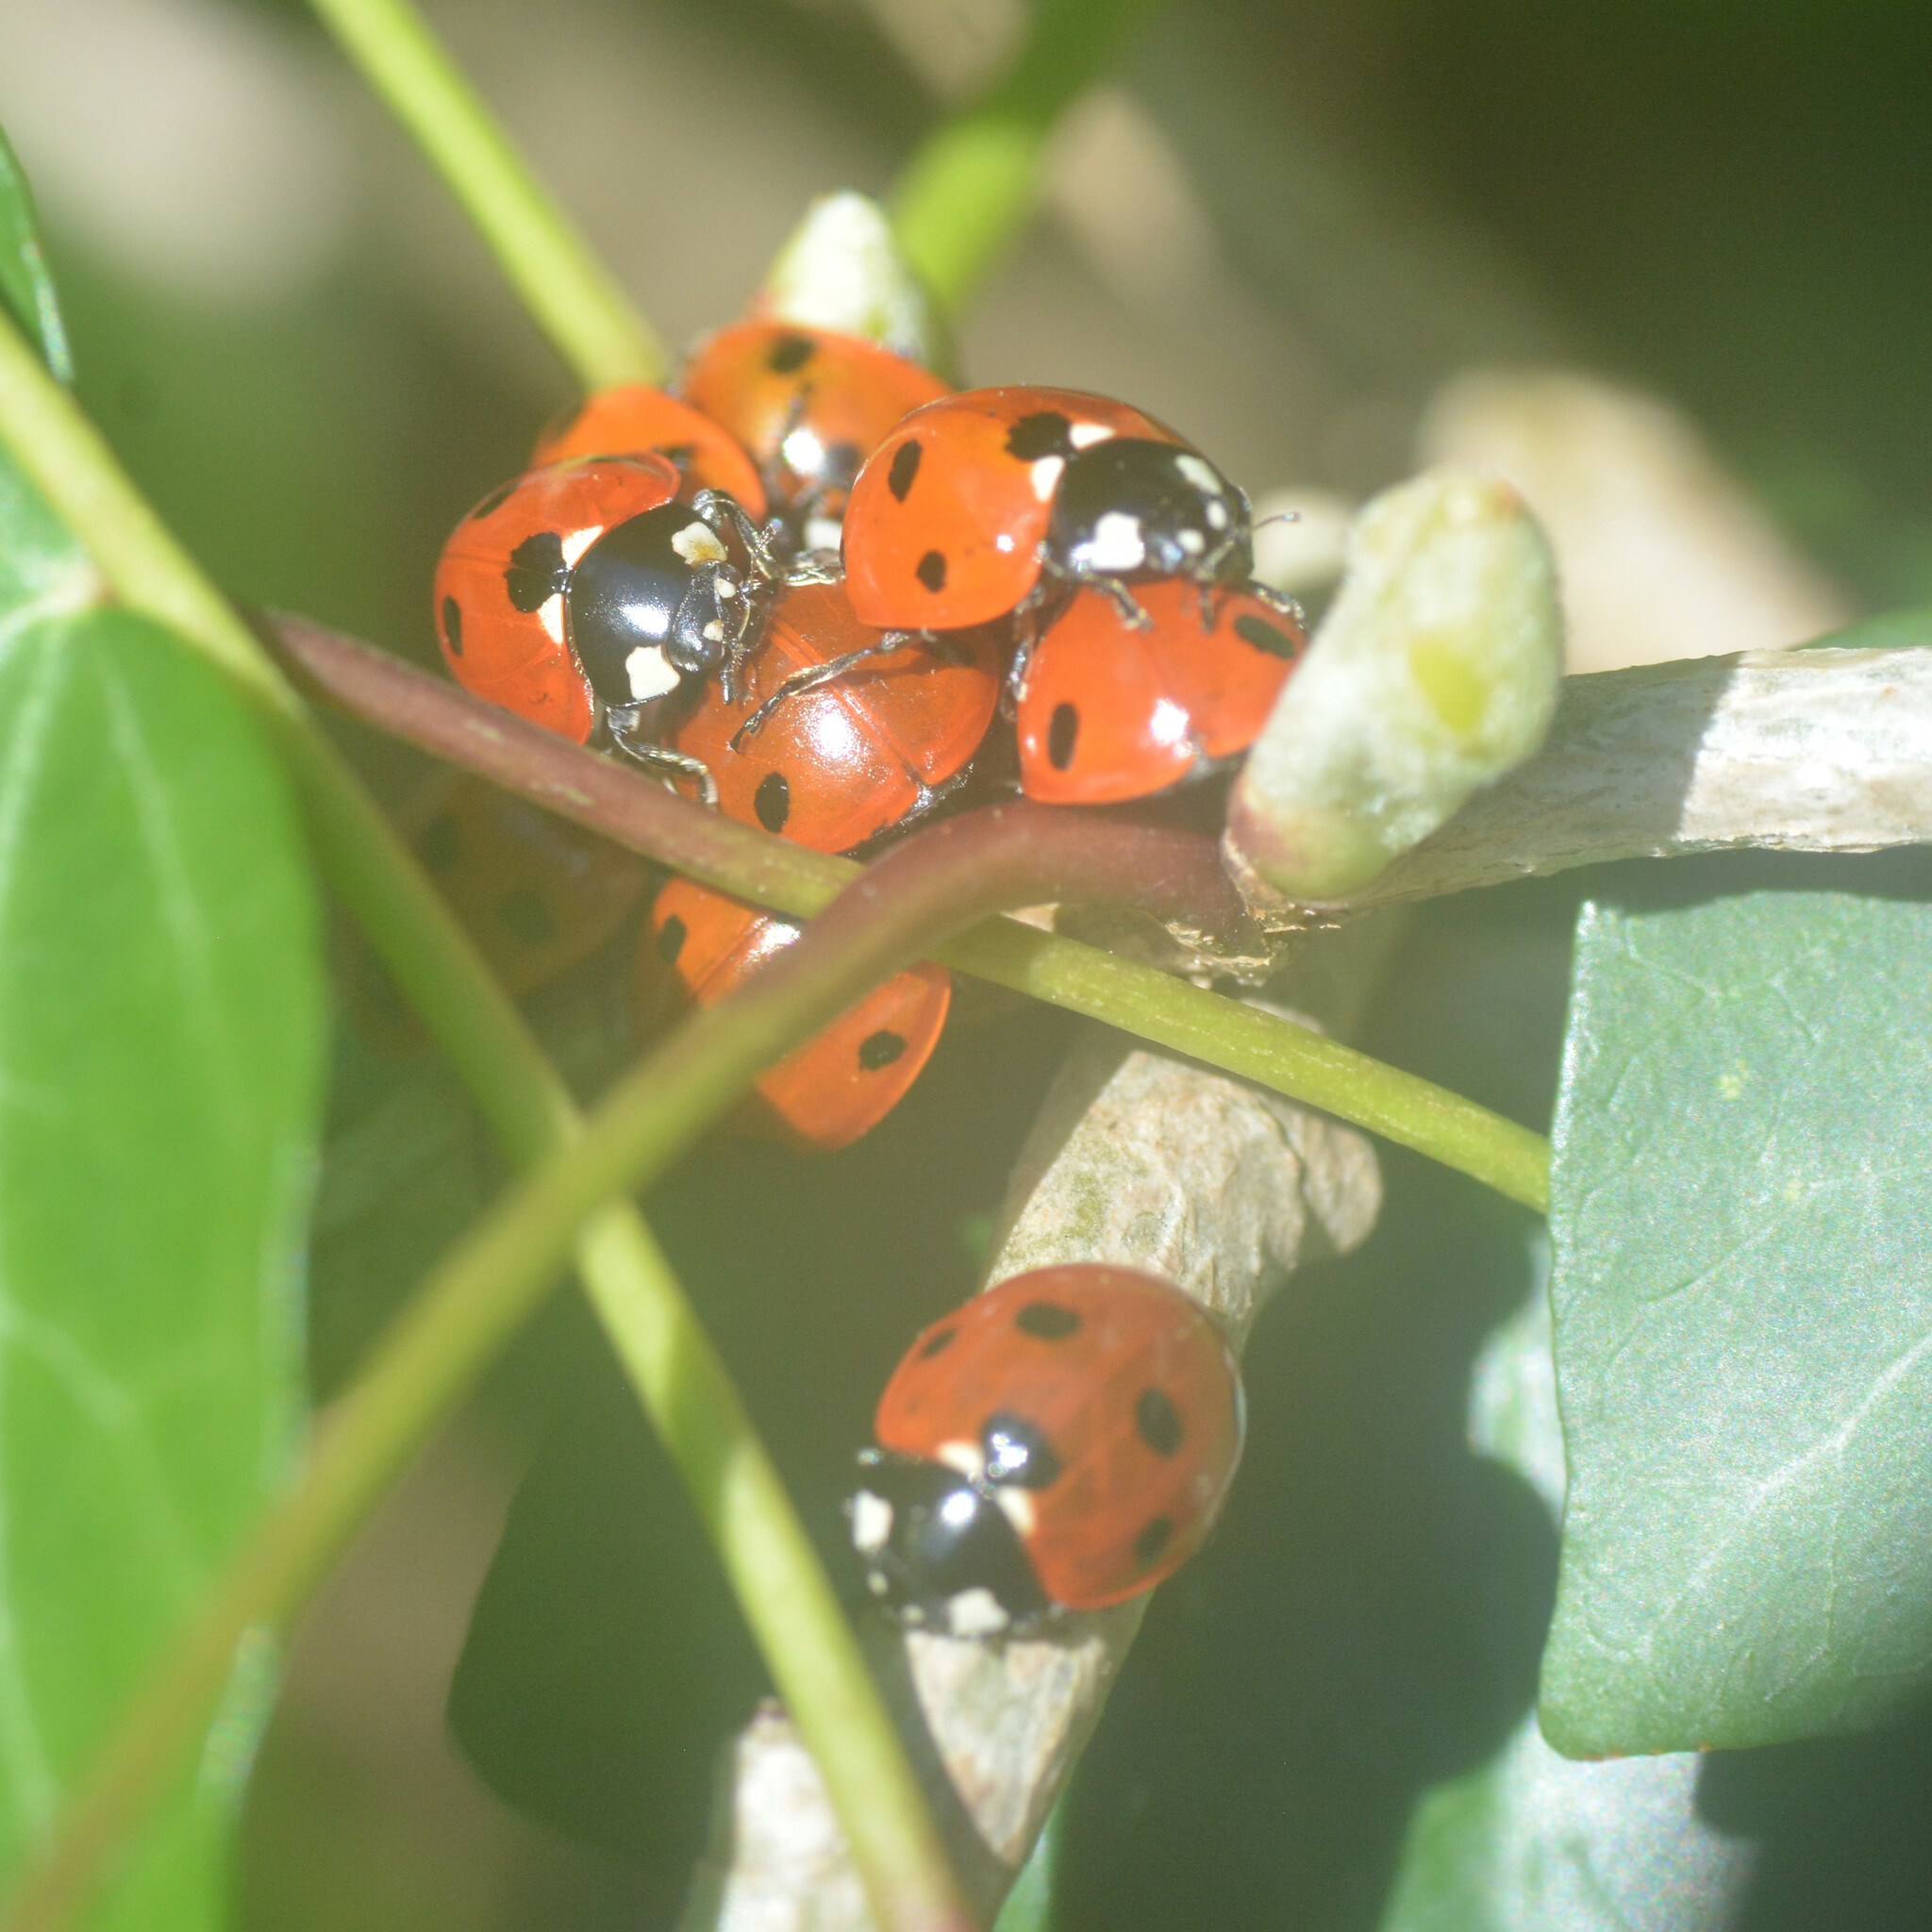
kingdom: Animalia
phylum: Arthropoda
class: Insecta
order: Coleoptera
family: Coccinellidae
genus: Coccinella
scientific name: Coccinella septempunctata
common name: Sevenspotted lady beetle
